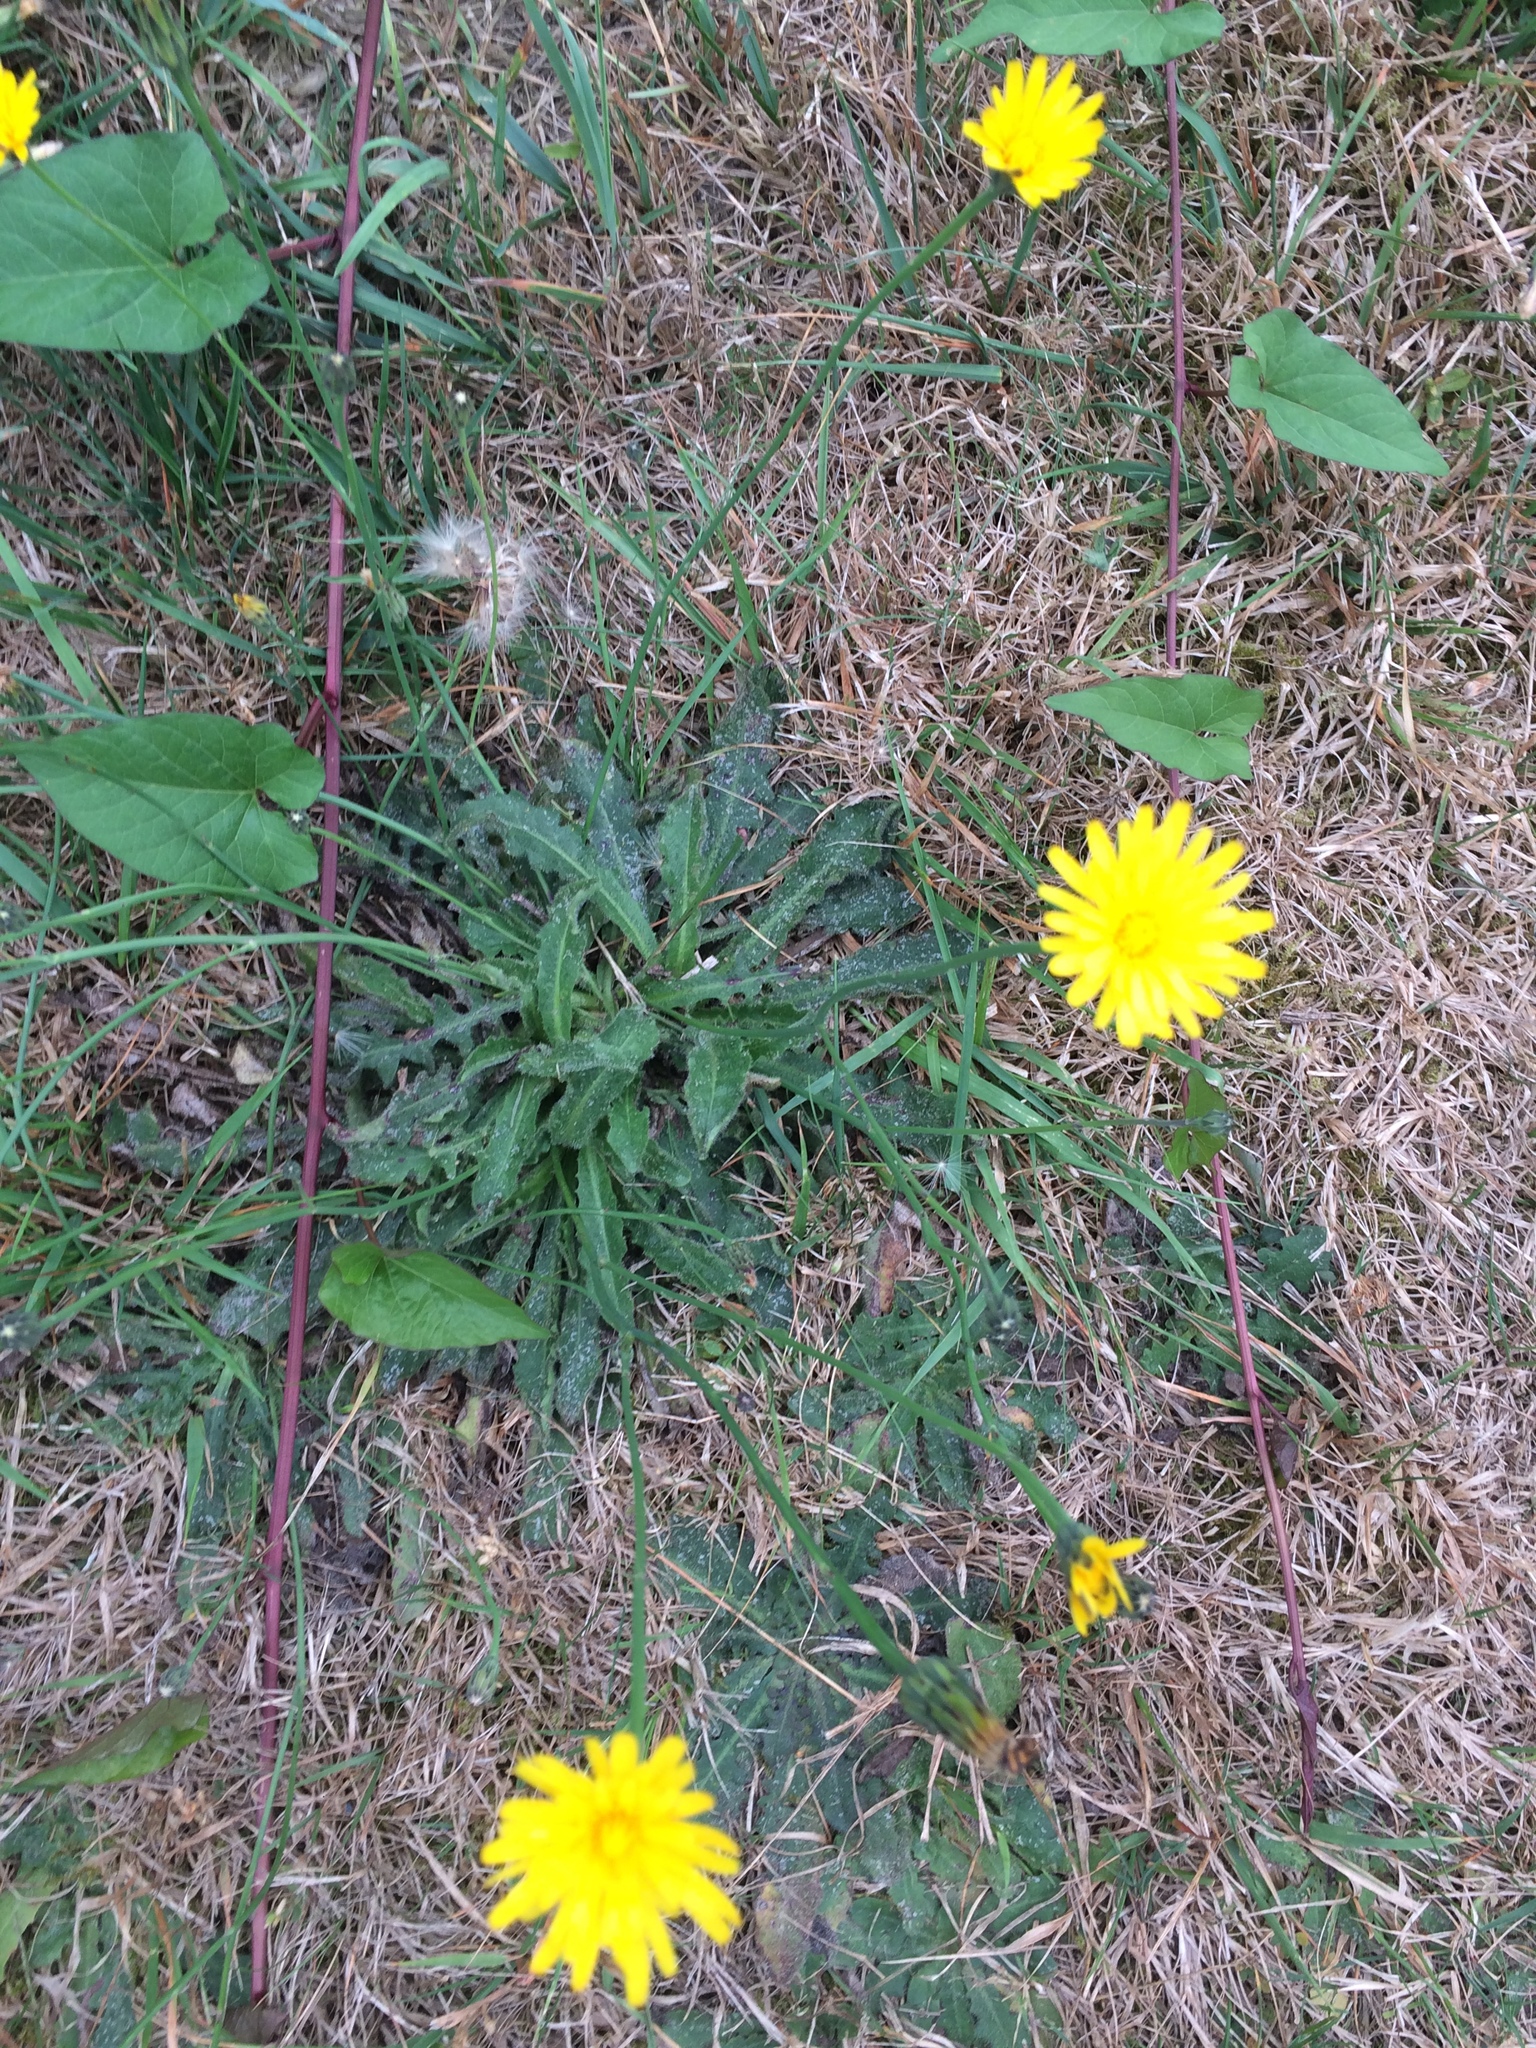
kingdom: Plantae
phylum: Tracheophyta
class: Magnoliopsida
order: Asterales
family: Asteraceae
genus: Hypochaeris
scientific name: Hypochaeris radicata
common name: Flatweed
